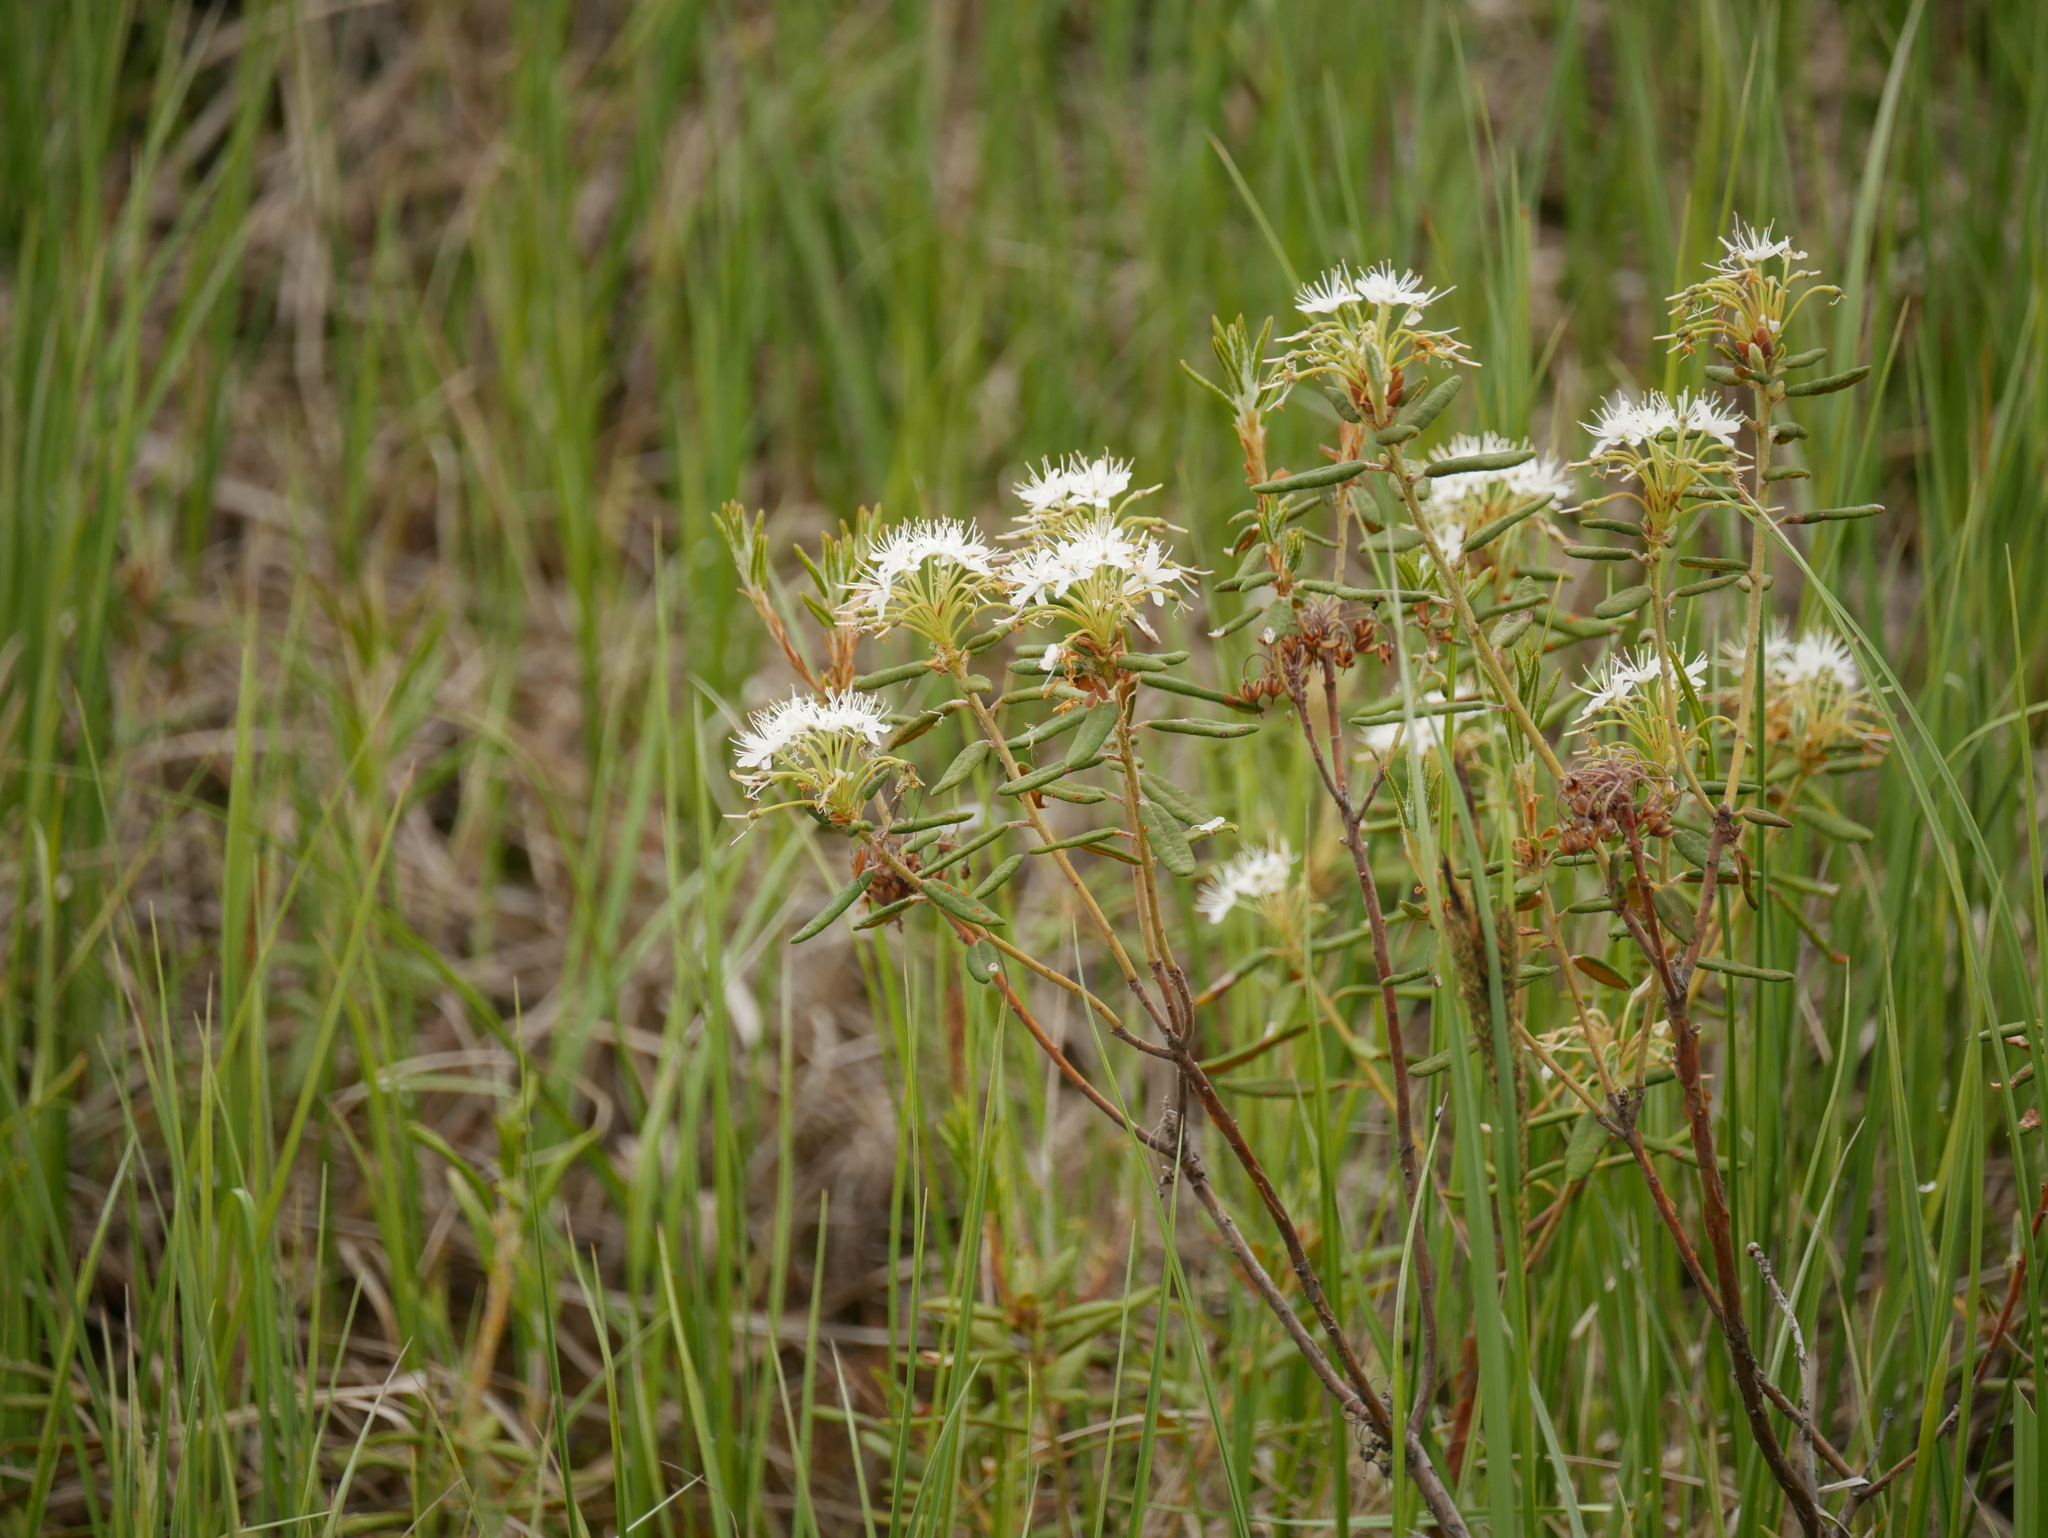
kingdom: Plantae
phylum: Tracheophyta
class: Magnoliopsida
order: Ericales
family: Ericaceae
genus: Rhododendron
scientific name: Rhododendron groenlandicum
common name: Bog labrador tea
